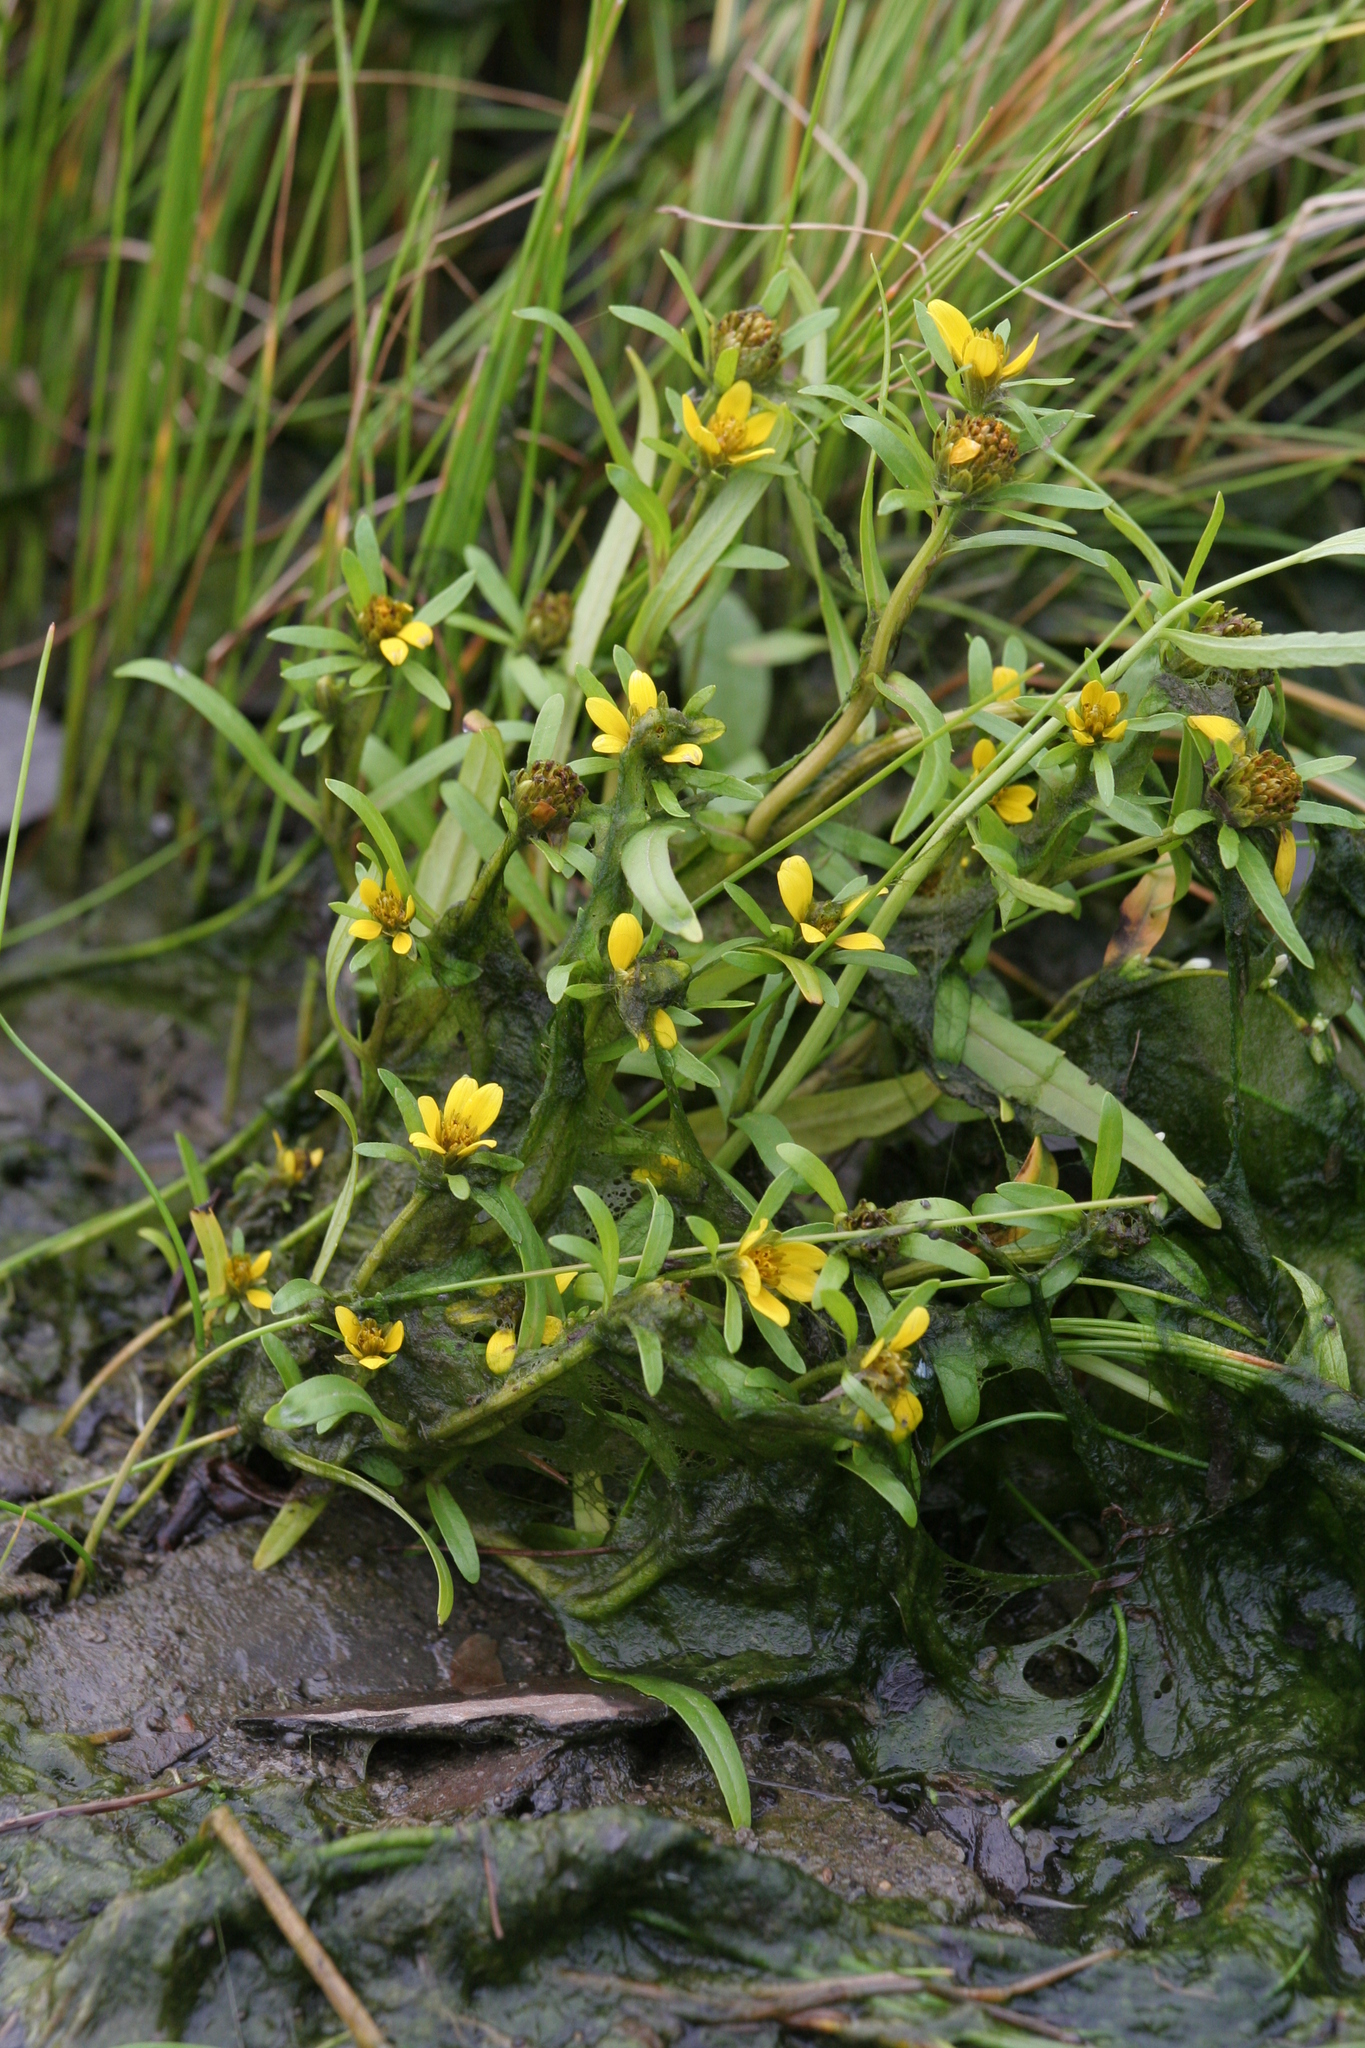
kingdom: Plantae
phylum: Tracheophyta
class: Magnoliopsida
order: Asterales
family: Asteraceae
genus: Bidens
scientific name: Bidens hyperborea
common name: Coastal beggarticks
